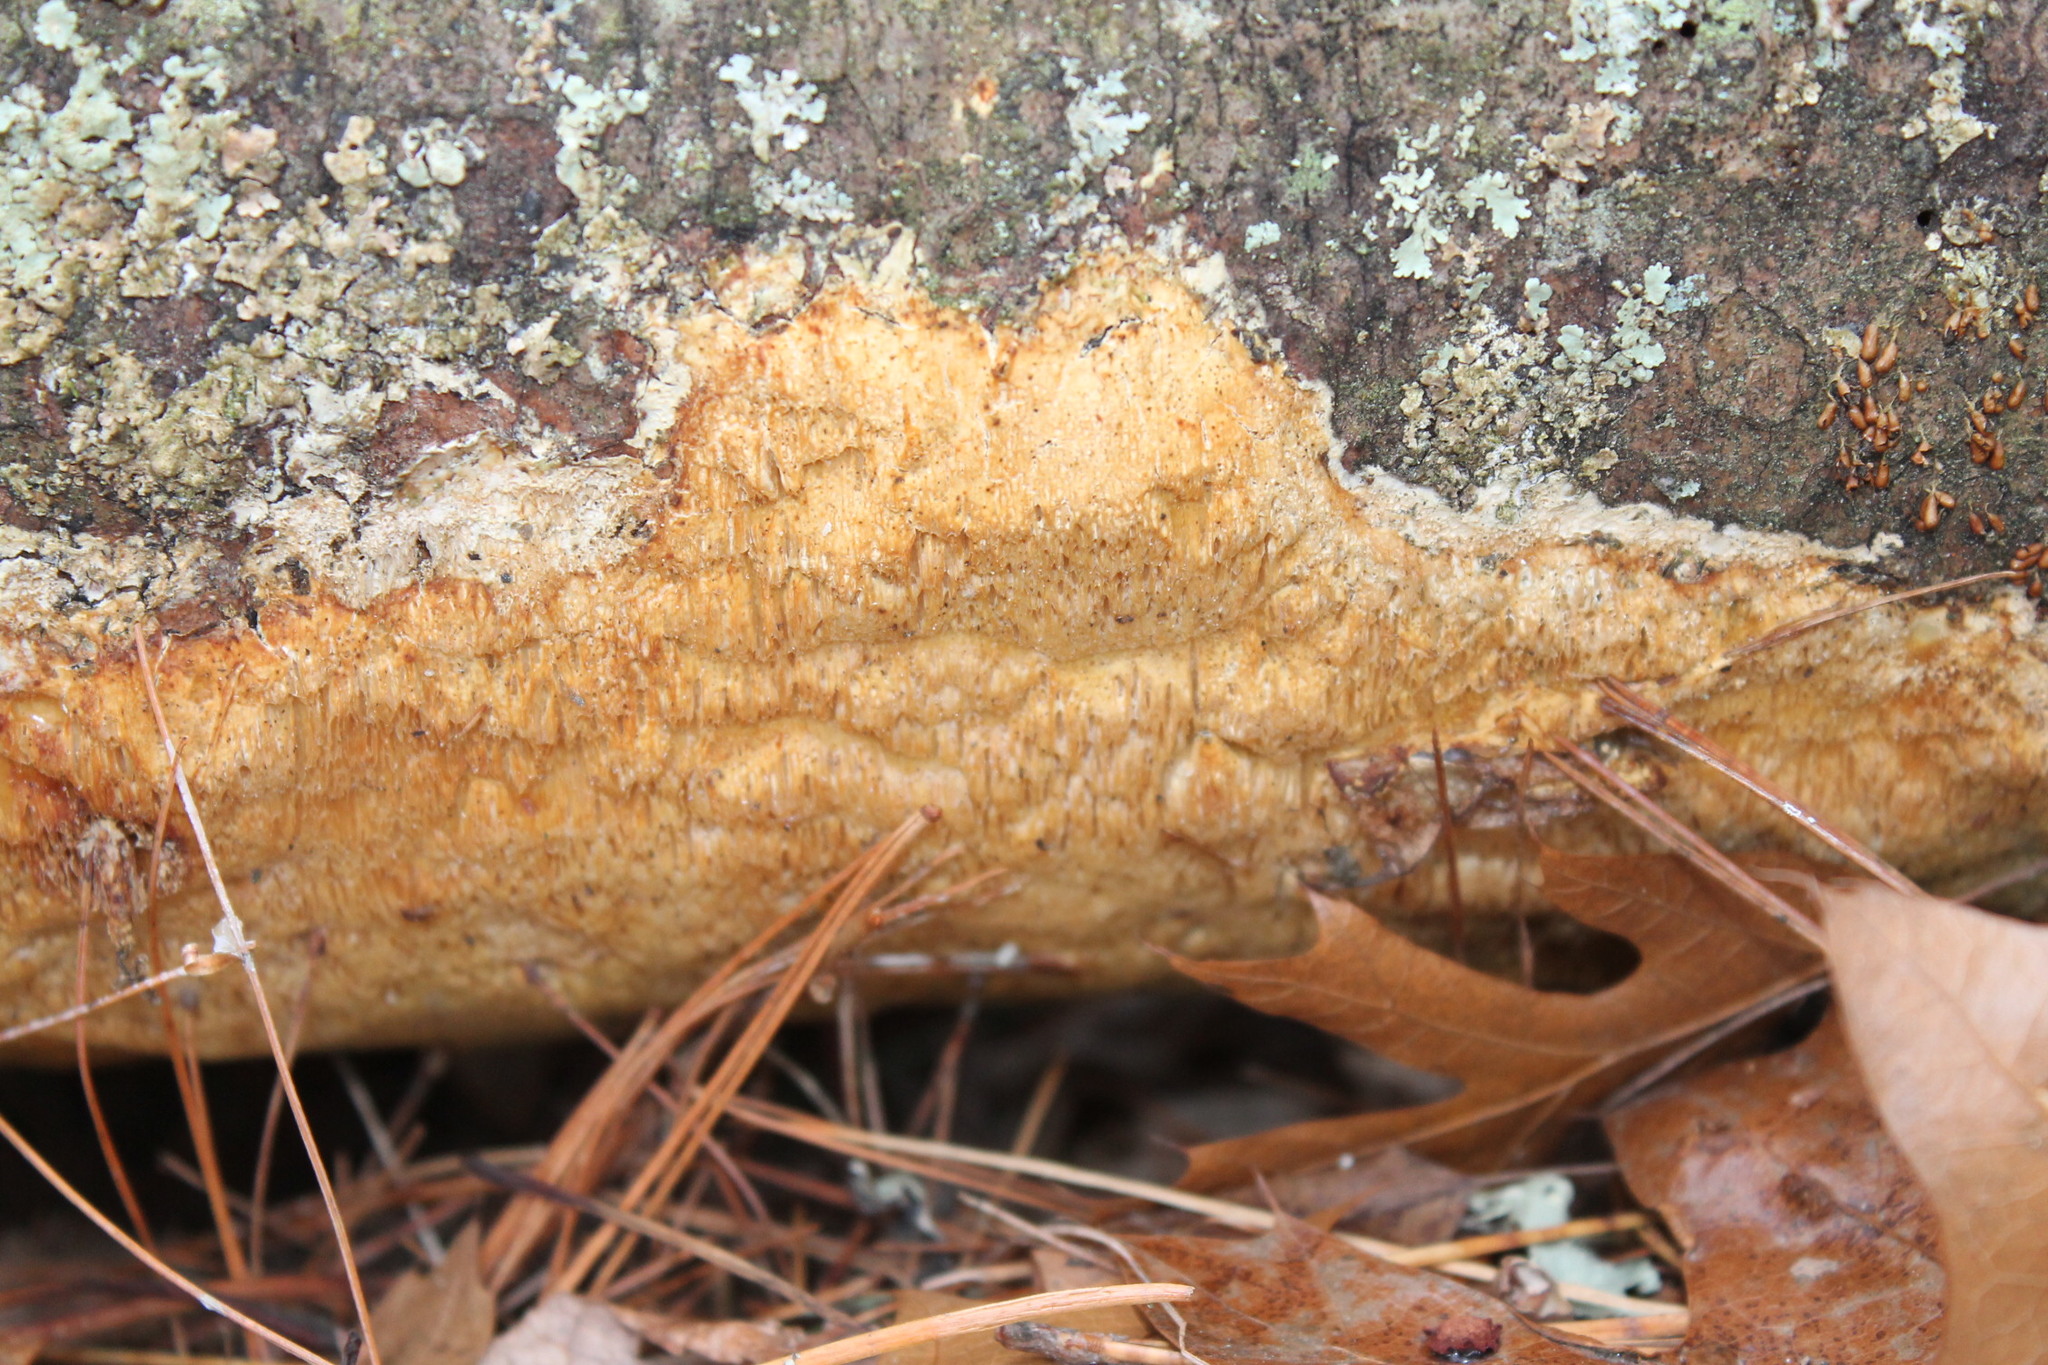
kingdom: Protozoa
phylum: Mycetozoa
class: Myxomycetes
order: Physarales
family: Physaraceae
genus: Leocarpus
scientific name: Leocarpus fragilis
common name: Insect-egg slime
